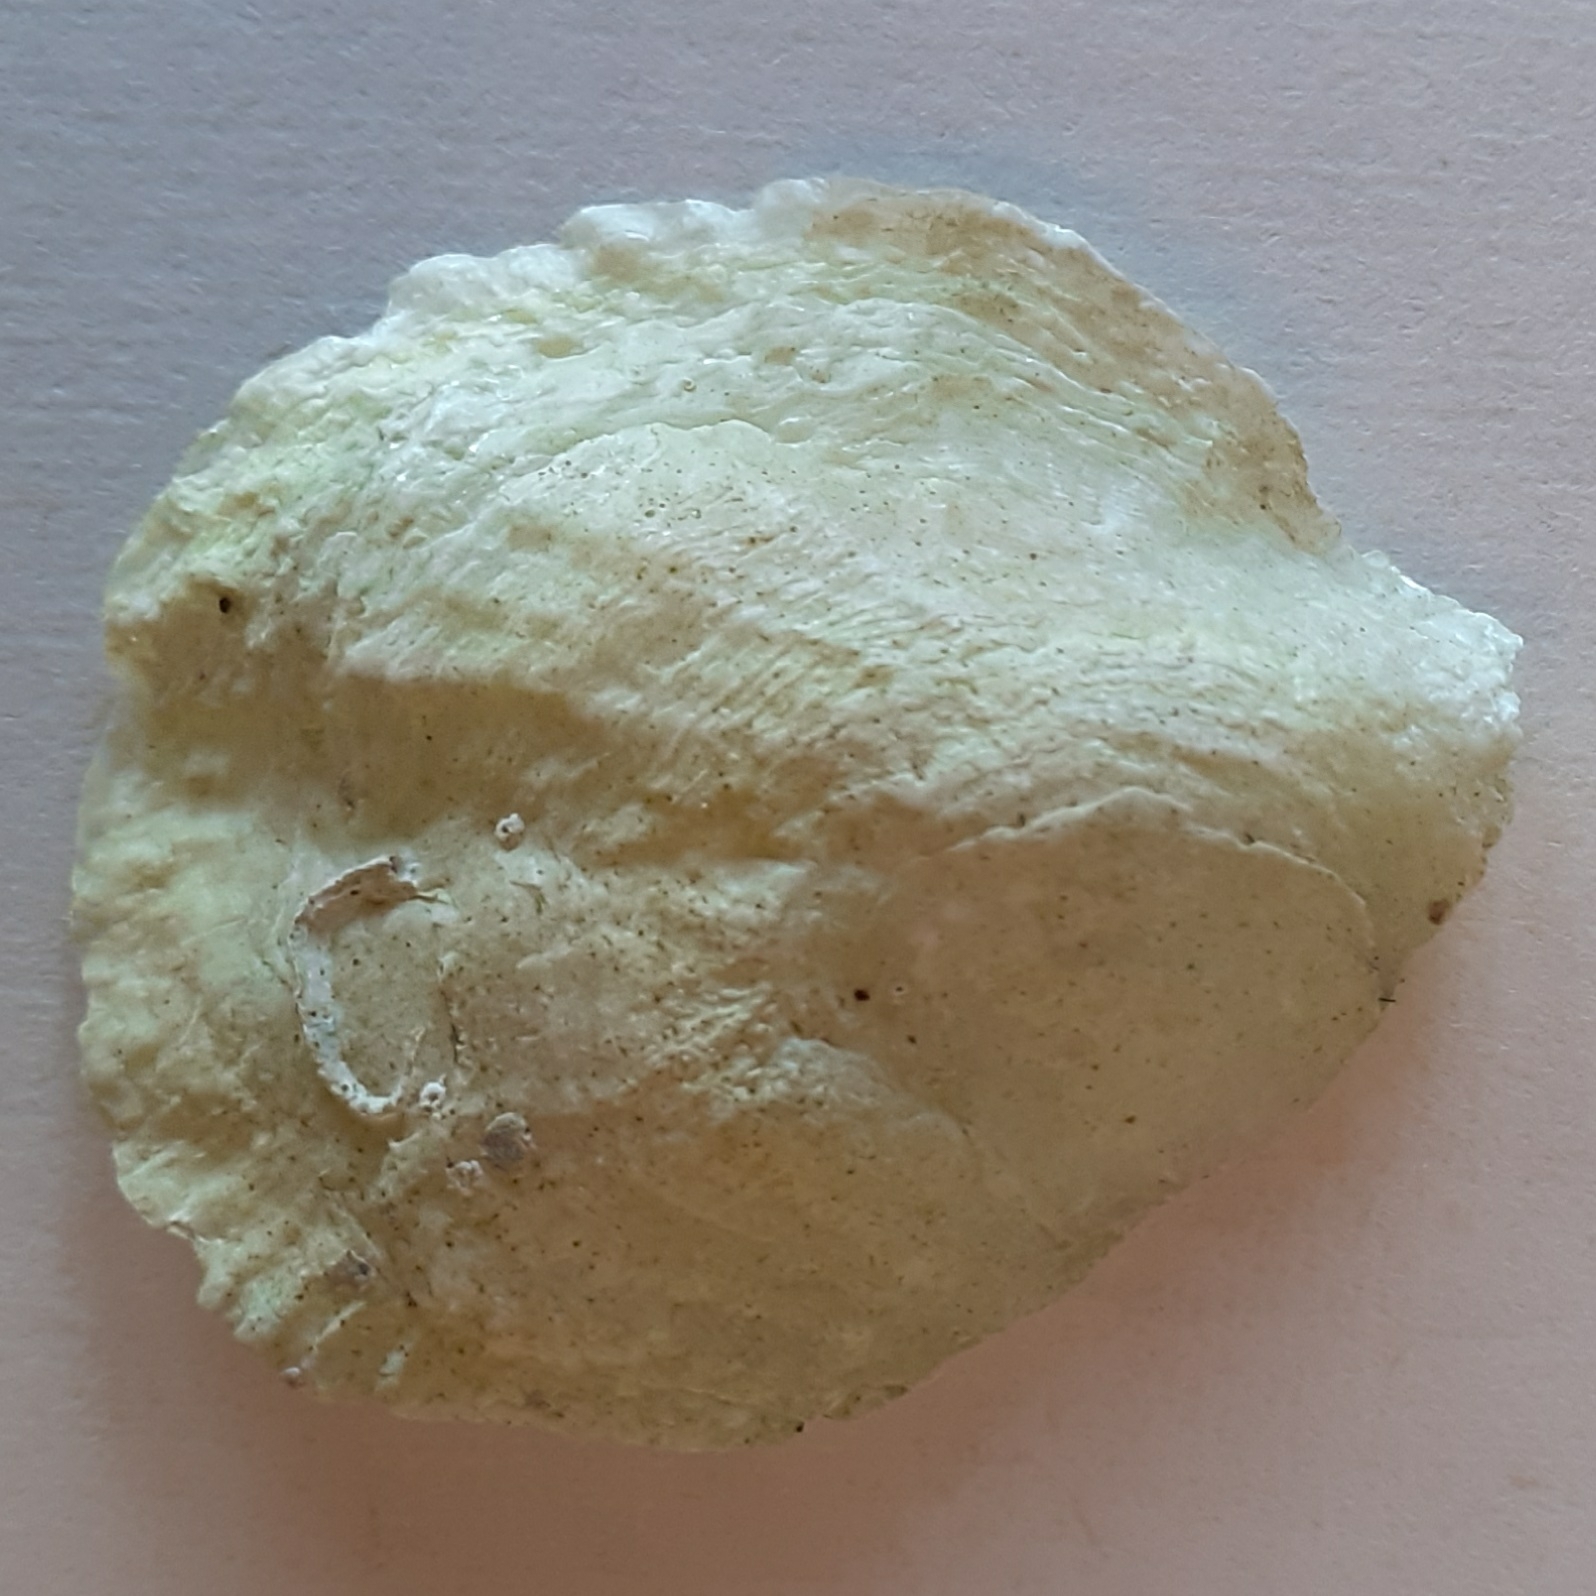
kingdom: Animalia
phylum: Mollusca
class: Bivalvia
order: Pectinida
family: Anomiidae
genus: Anomia
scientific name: Anomia ephippium
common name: Saddle oyster
